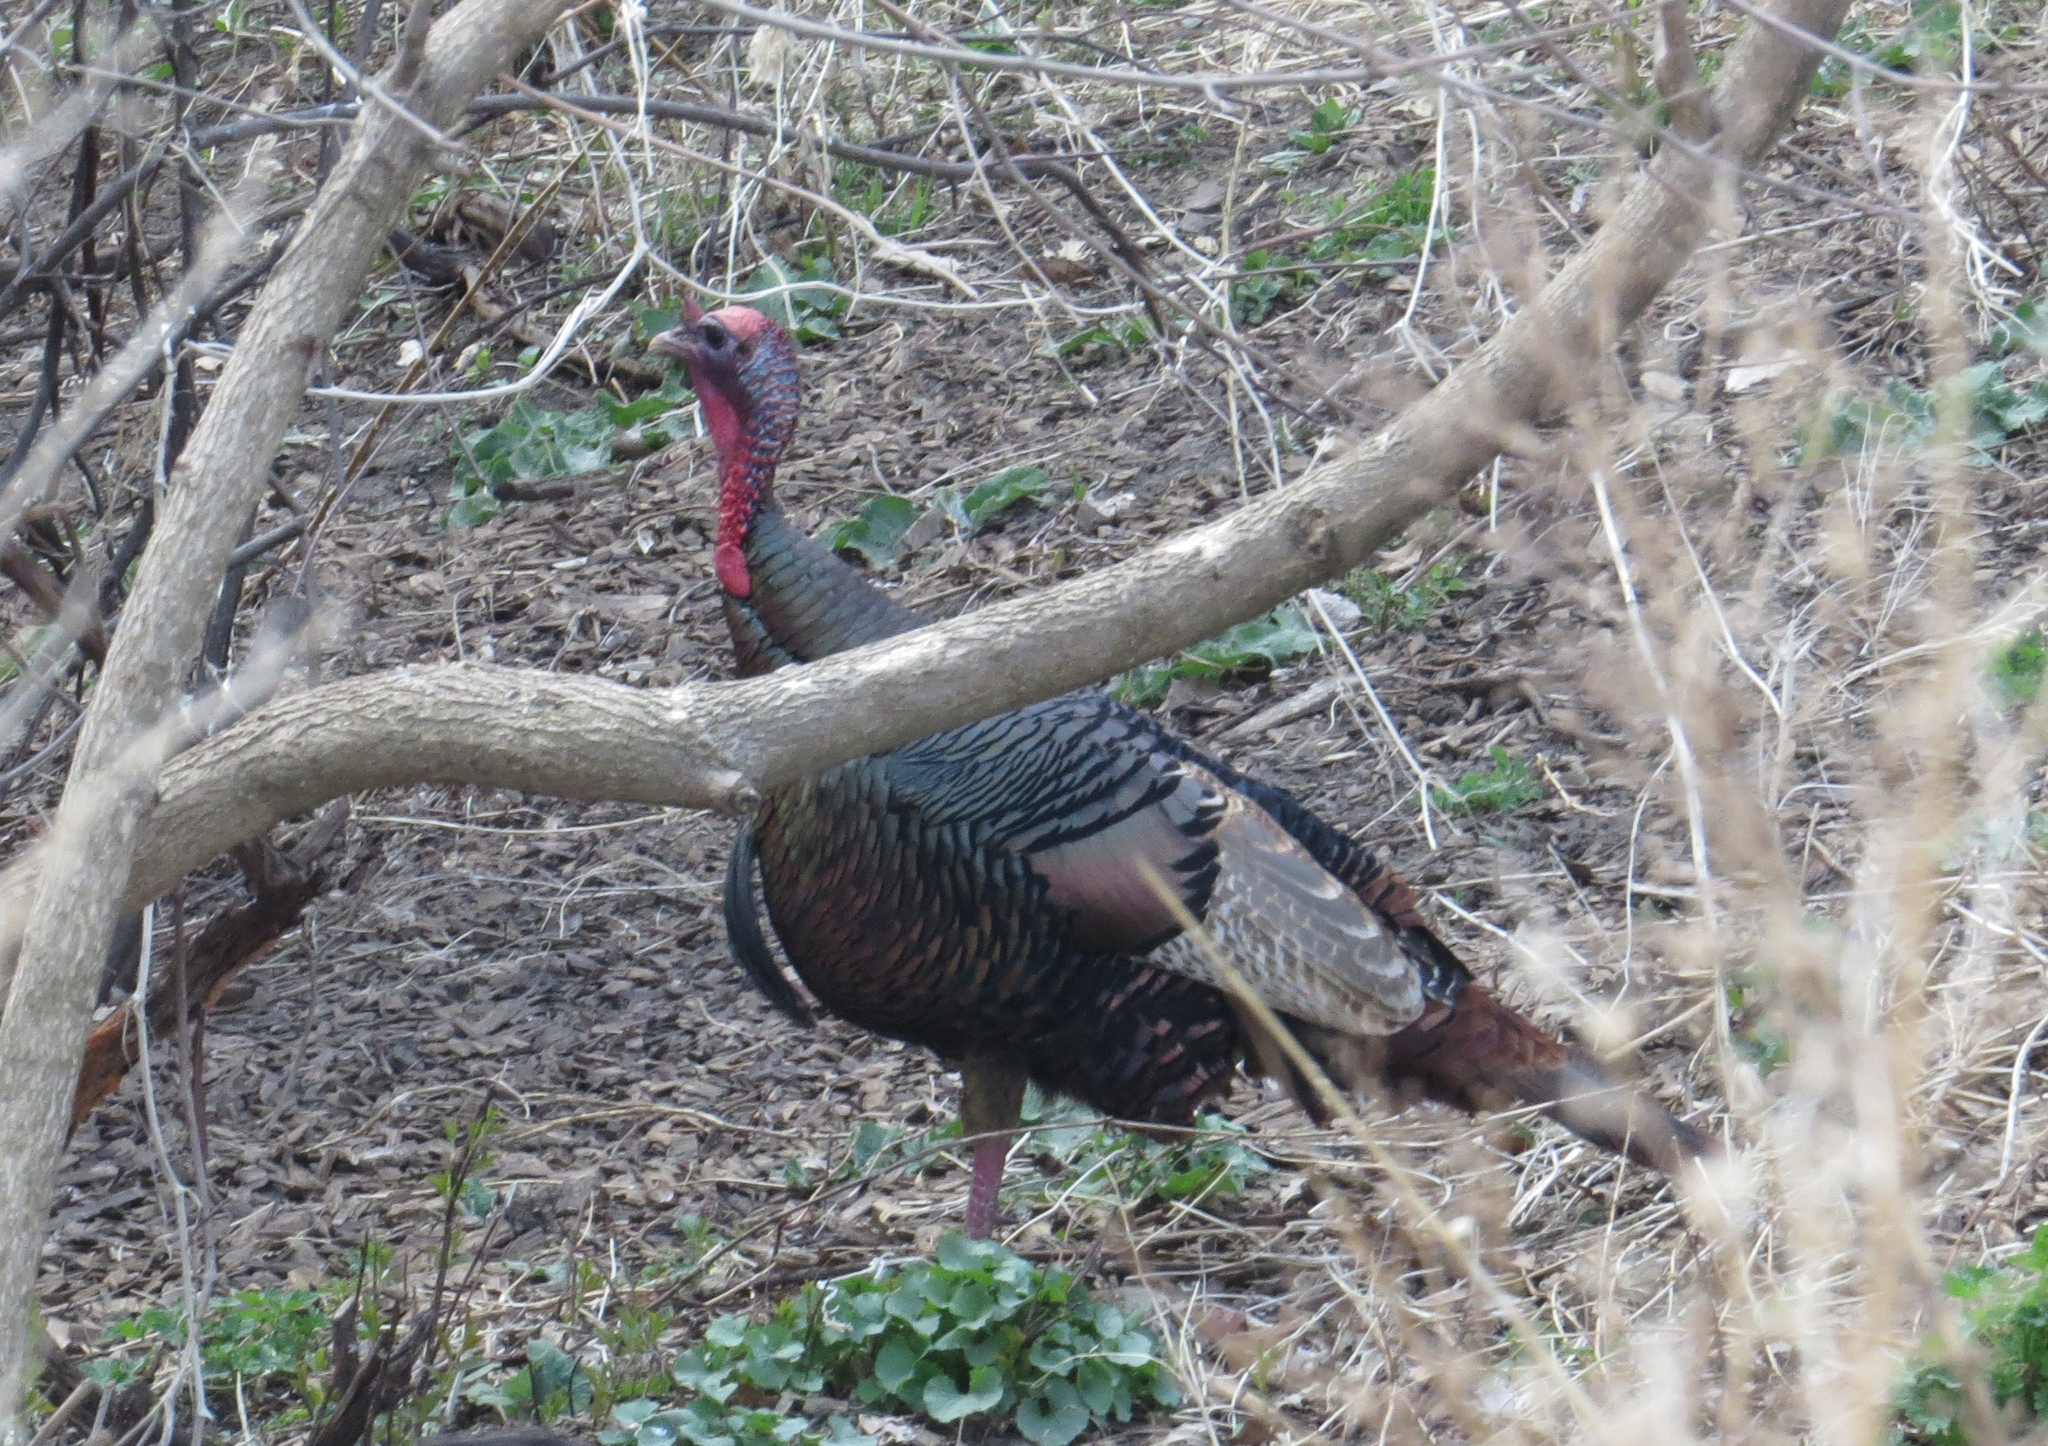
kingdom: Animalia
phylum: Chordata
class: Aves
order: Galliformes
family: Phasianidae
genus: Meleagris
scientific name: Meleagris gallopavo
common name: Wild turkey
